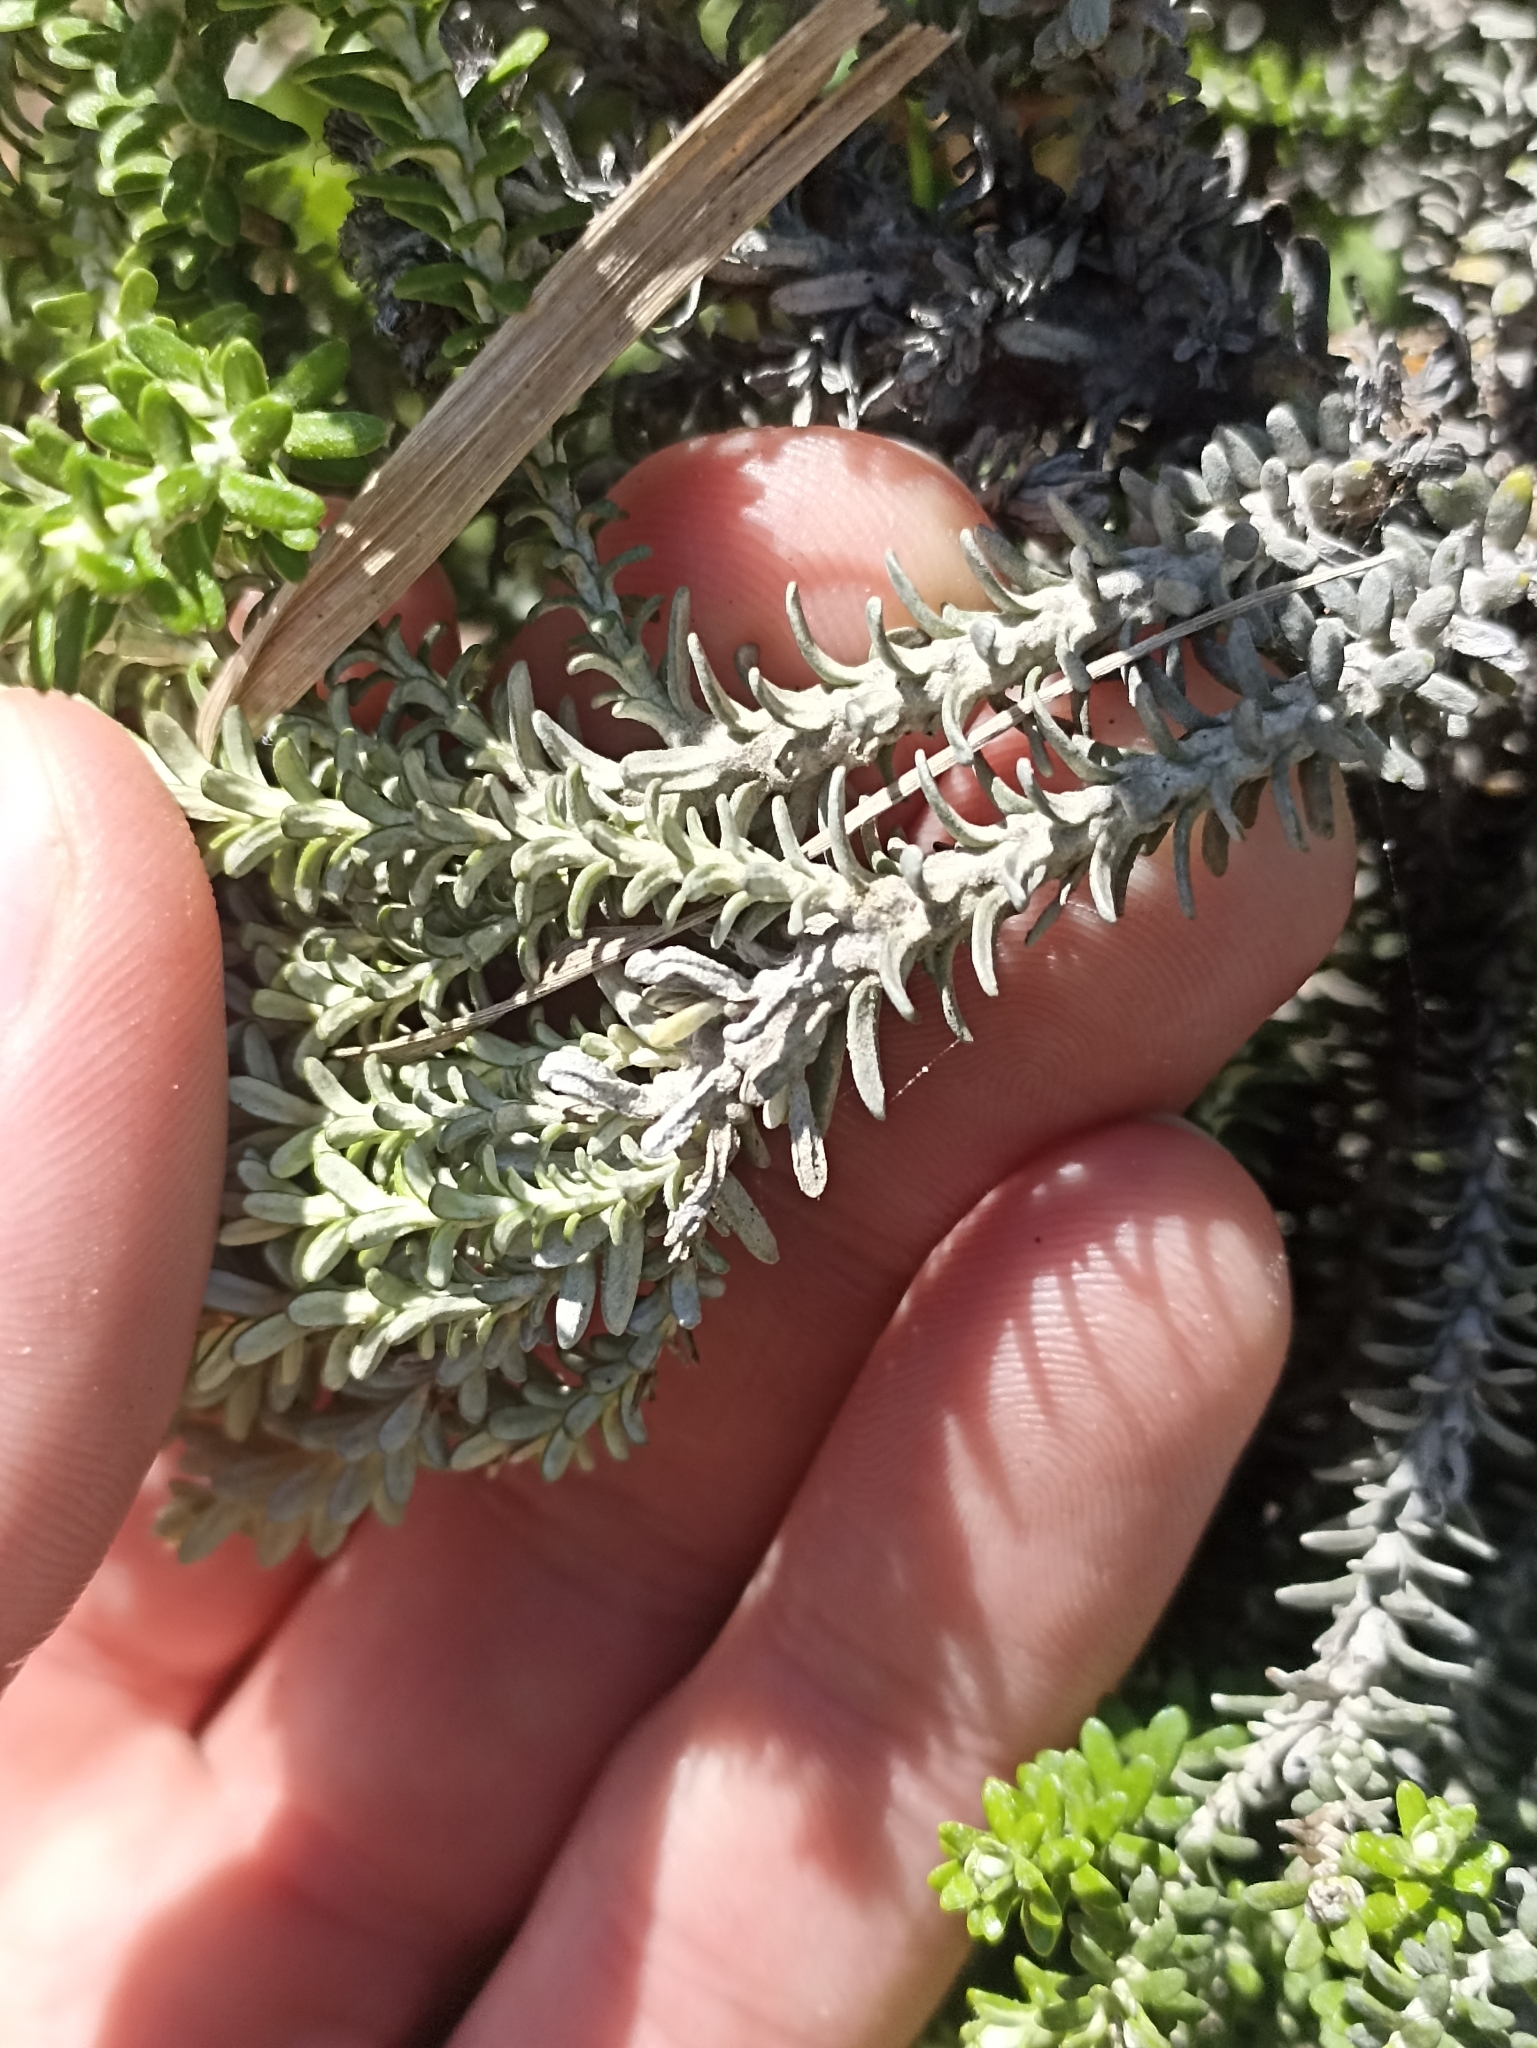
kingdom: Plantae
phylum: Tracheophyta
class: Magnoliopsida
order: Asterales
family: Asteraceae
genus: Ozothamnus
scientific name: Ozothamnus leptophyllus
